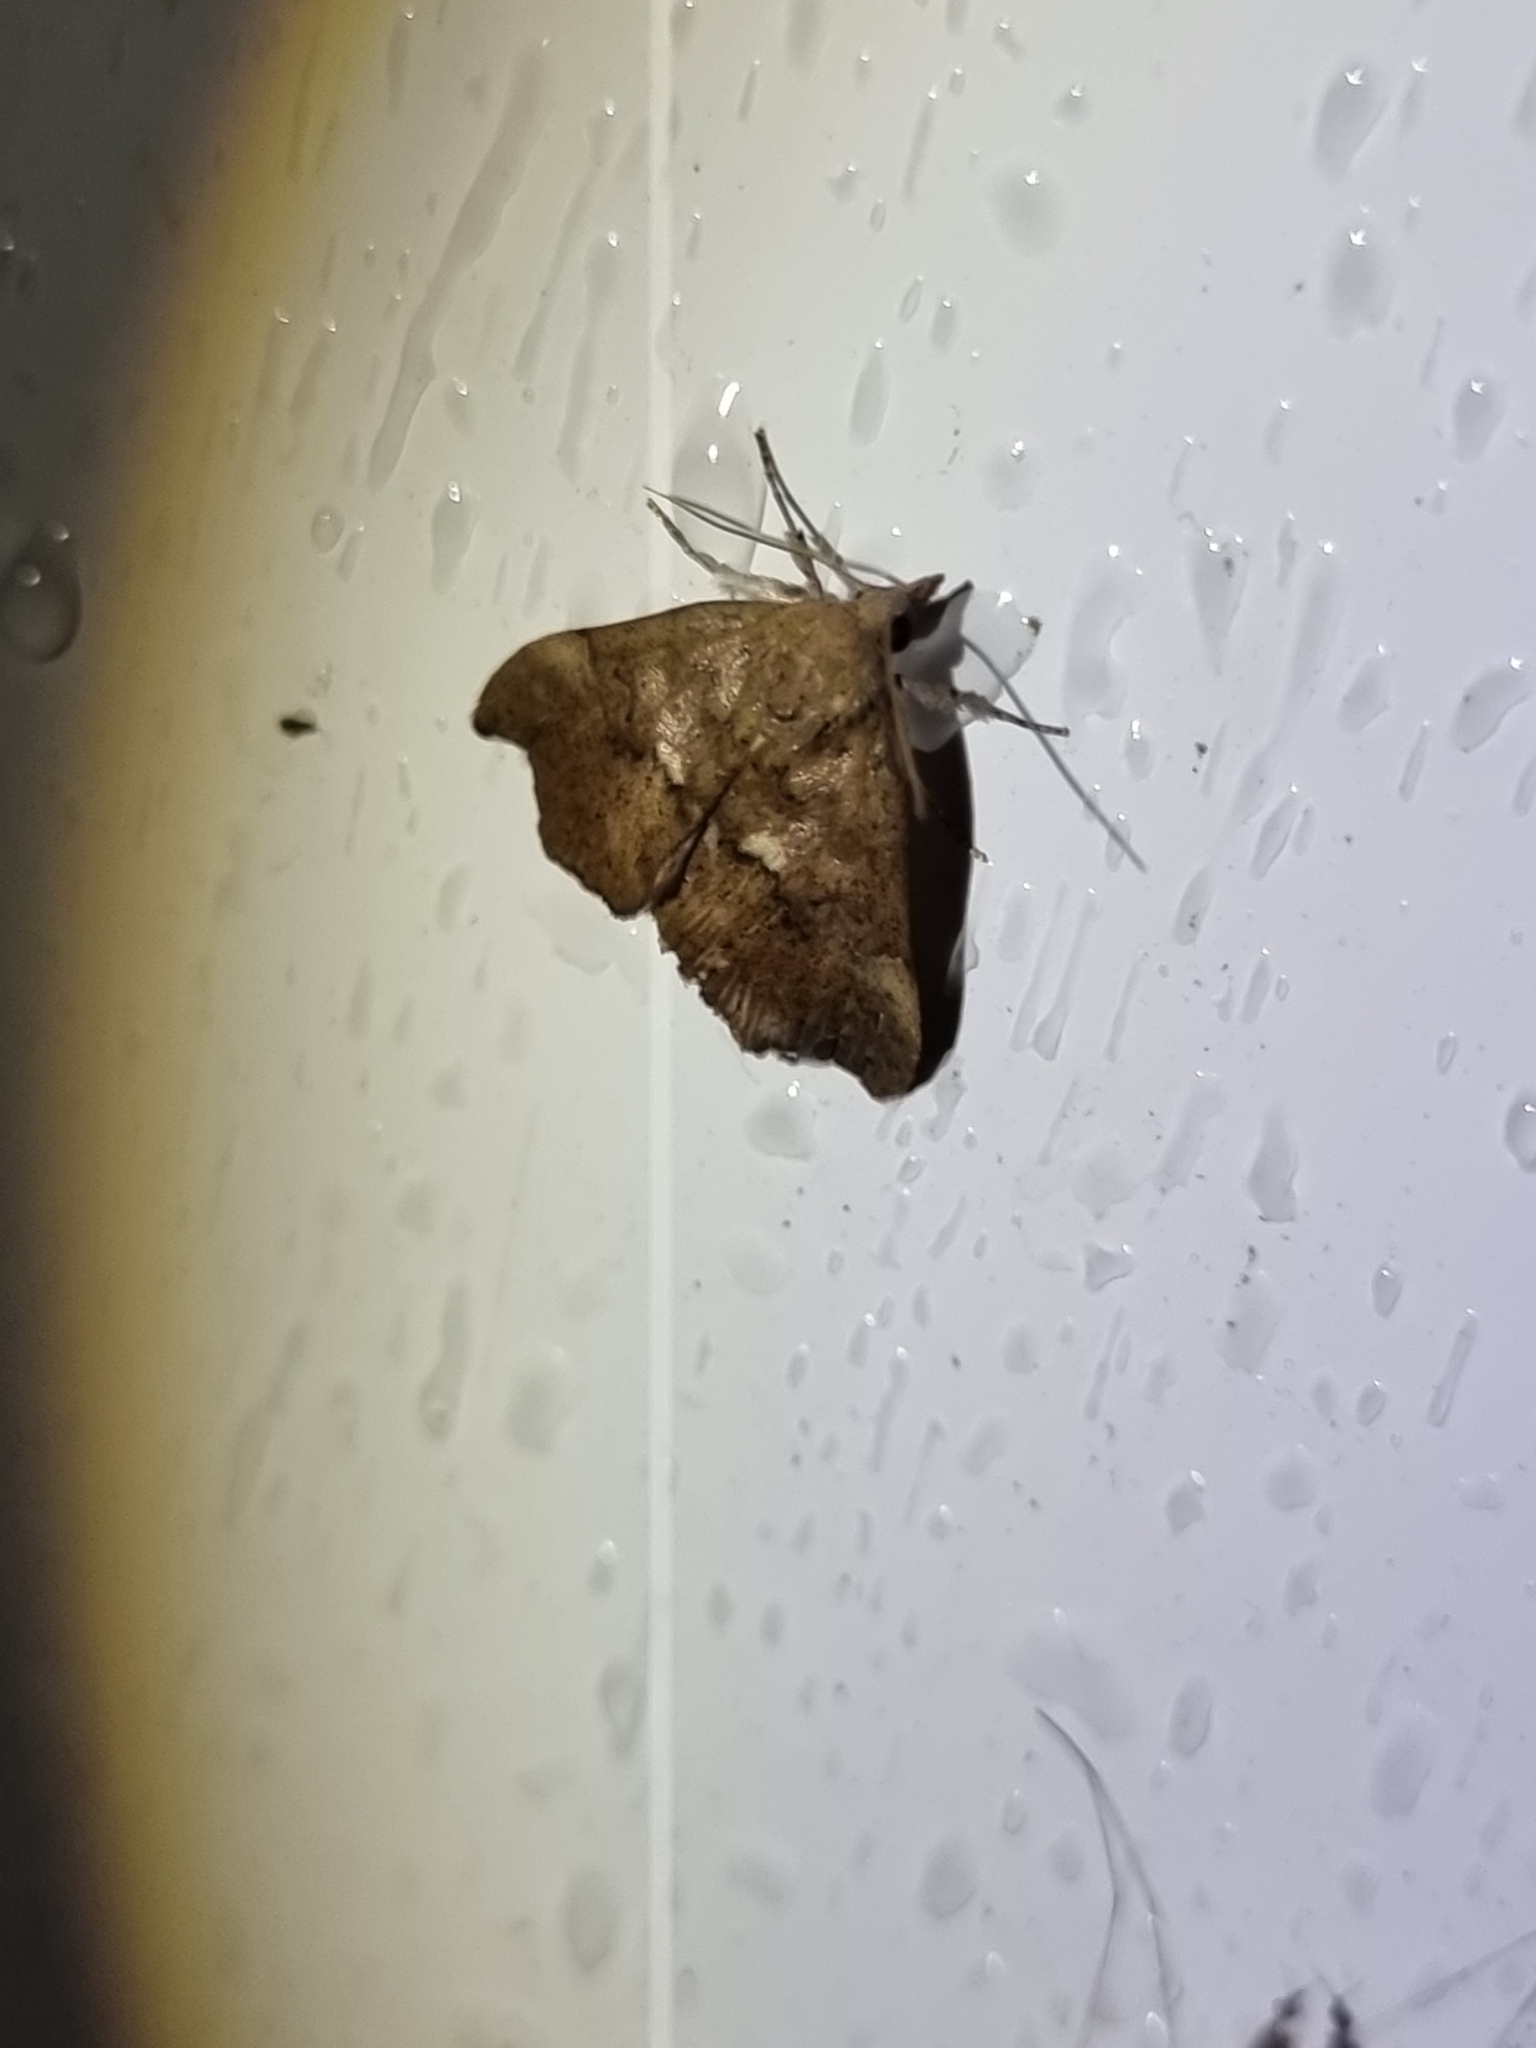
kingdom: Animalia
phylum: Arthropoda
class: Insecta
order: Lepidoptera
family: Erebidae
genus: Axiocteta
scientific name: Axiocteta oenoplex
